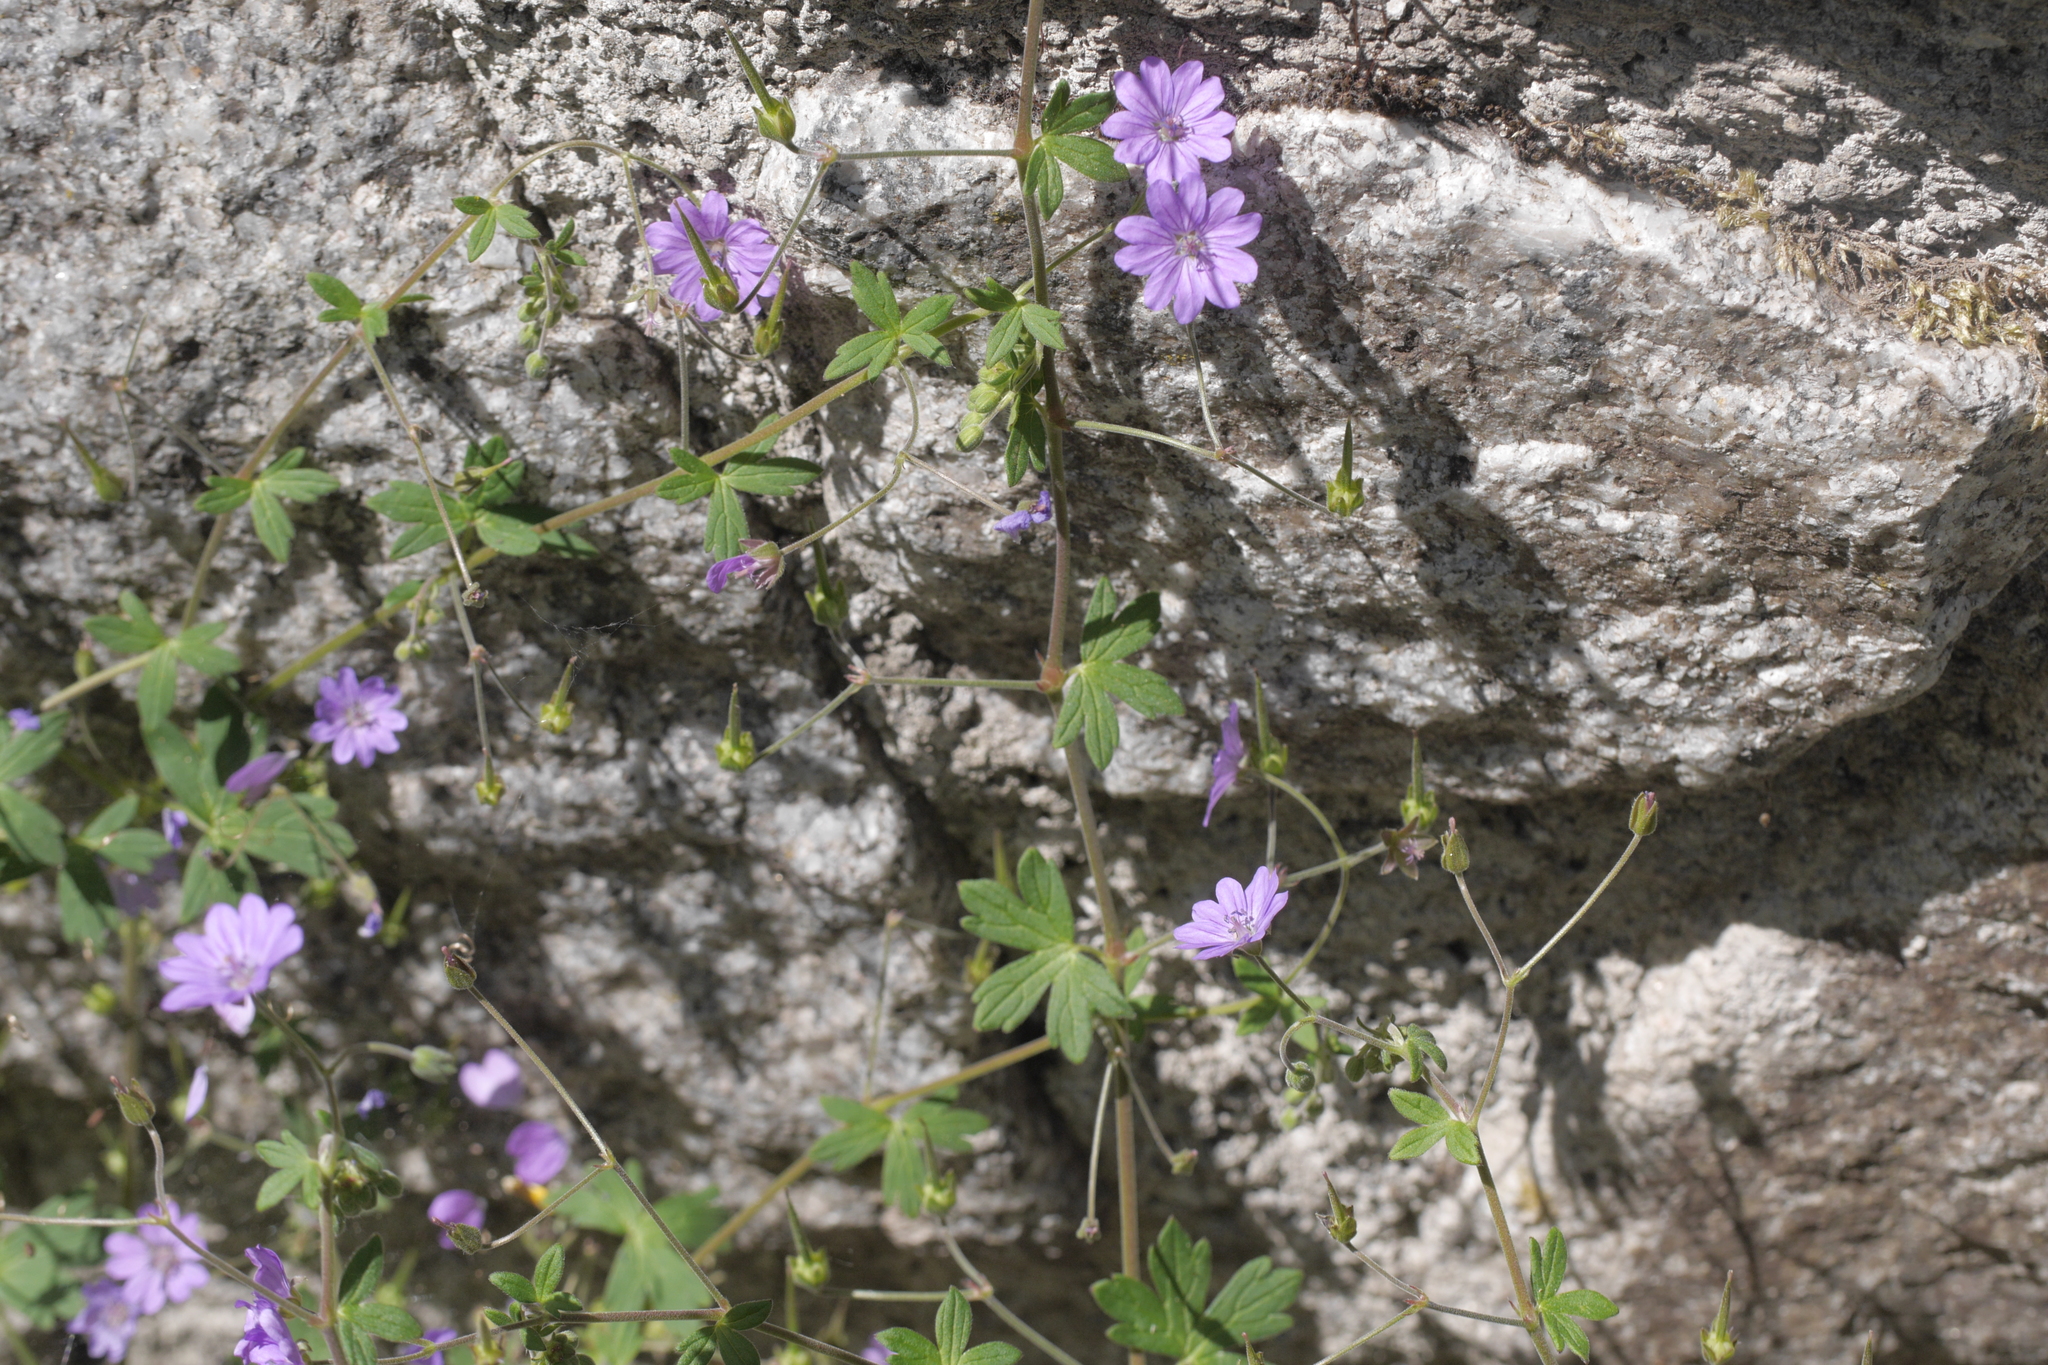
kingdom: Plantae
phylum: Tracheophyta
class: Magnoliopsida
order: Geraniales
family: Geraniaceae
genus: Geranium
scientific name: Geranium pyrenaicum
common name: Hedgerow crane's-bill
